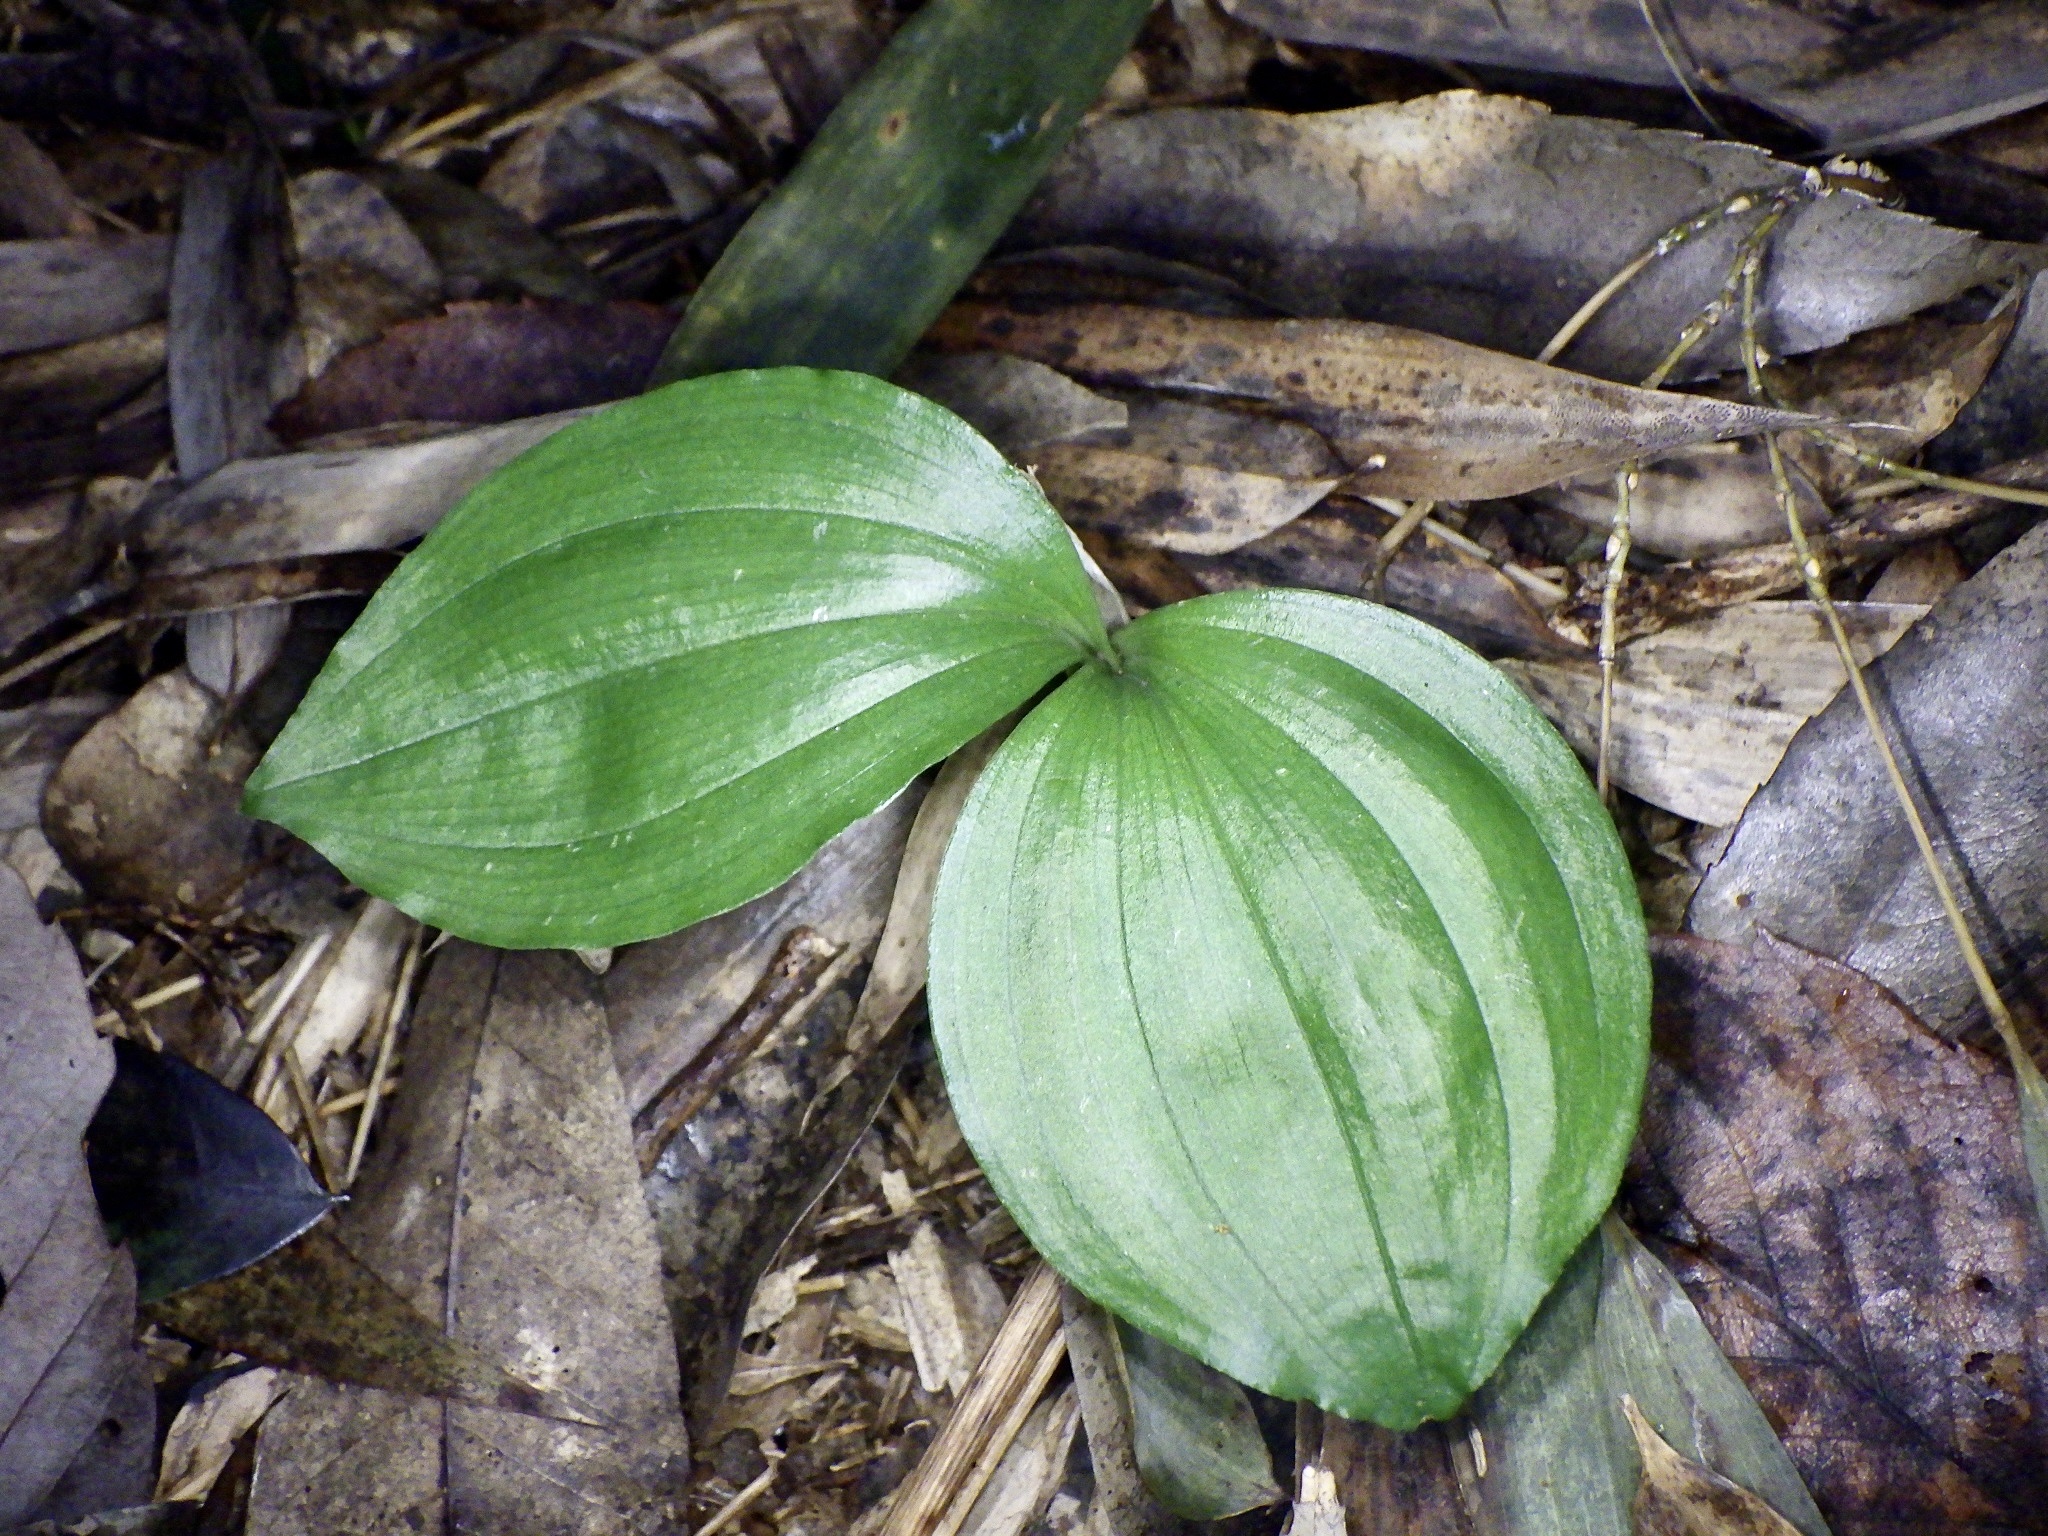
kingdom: Plantae
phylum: Tracheophyta
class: Liliopsida
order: Asparagales
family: Orchidaceae
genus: Liparis
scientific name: Liparis nervosa
